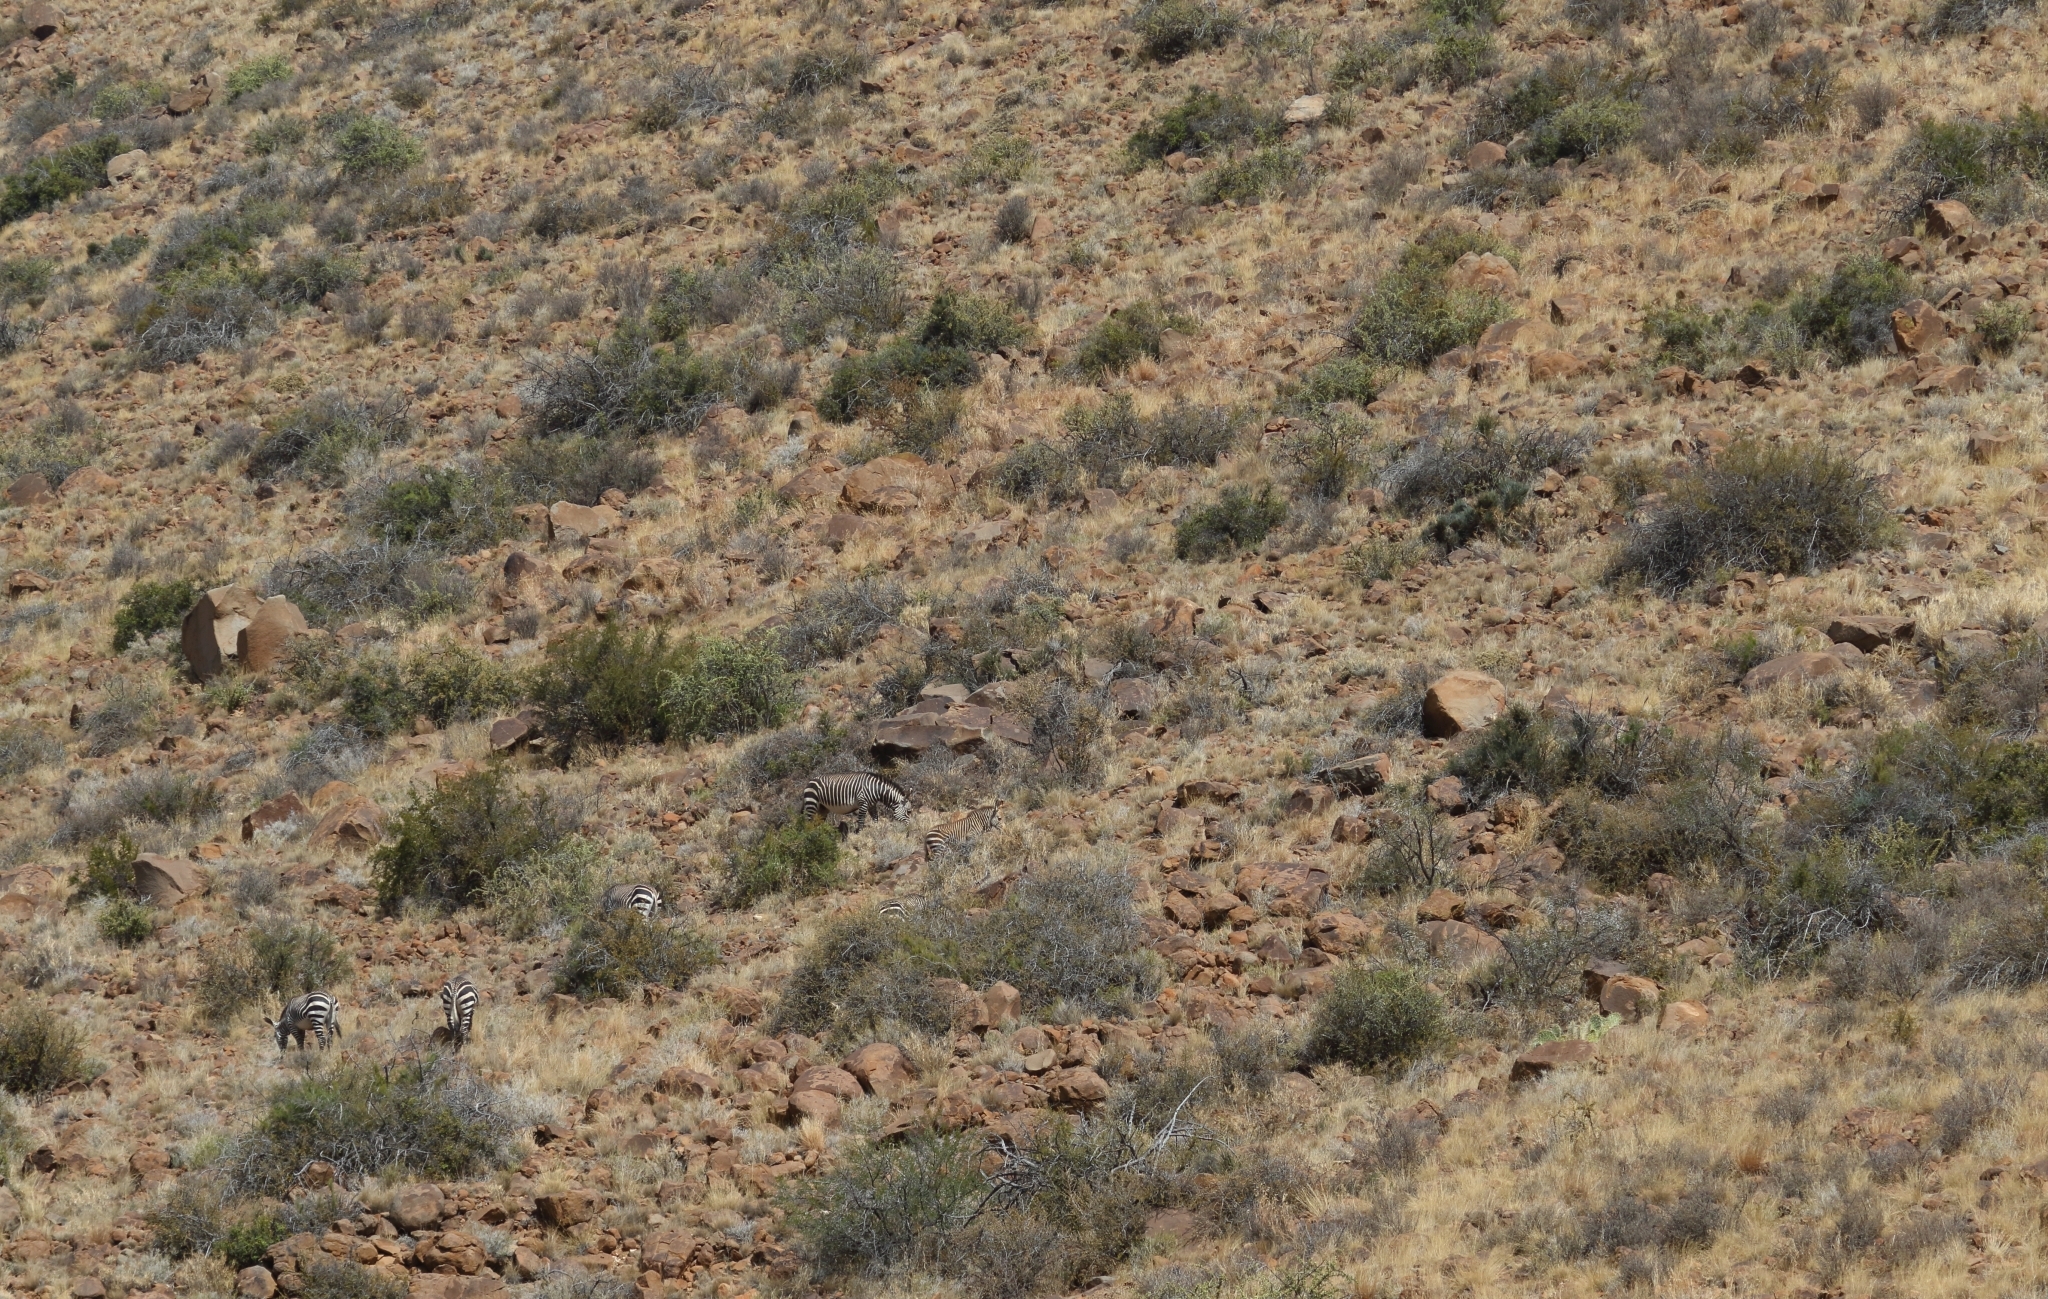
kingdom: Animalia
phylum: Chordata
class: Mammalia
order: Perissodactyla
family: Equidae
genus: Equus
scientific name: Equus zebra
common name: Mountain zebra
